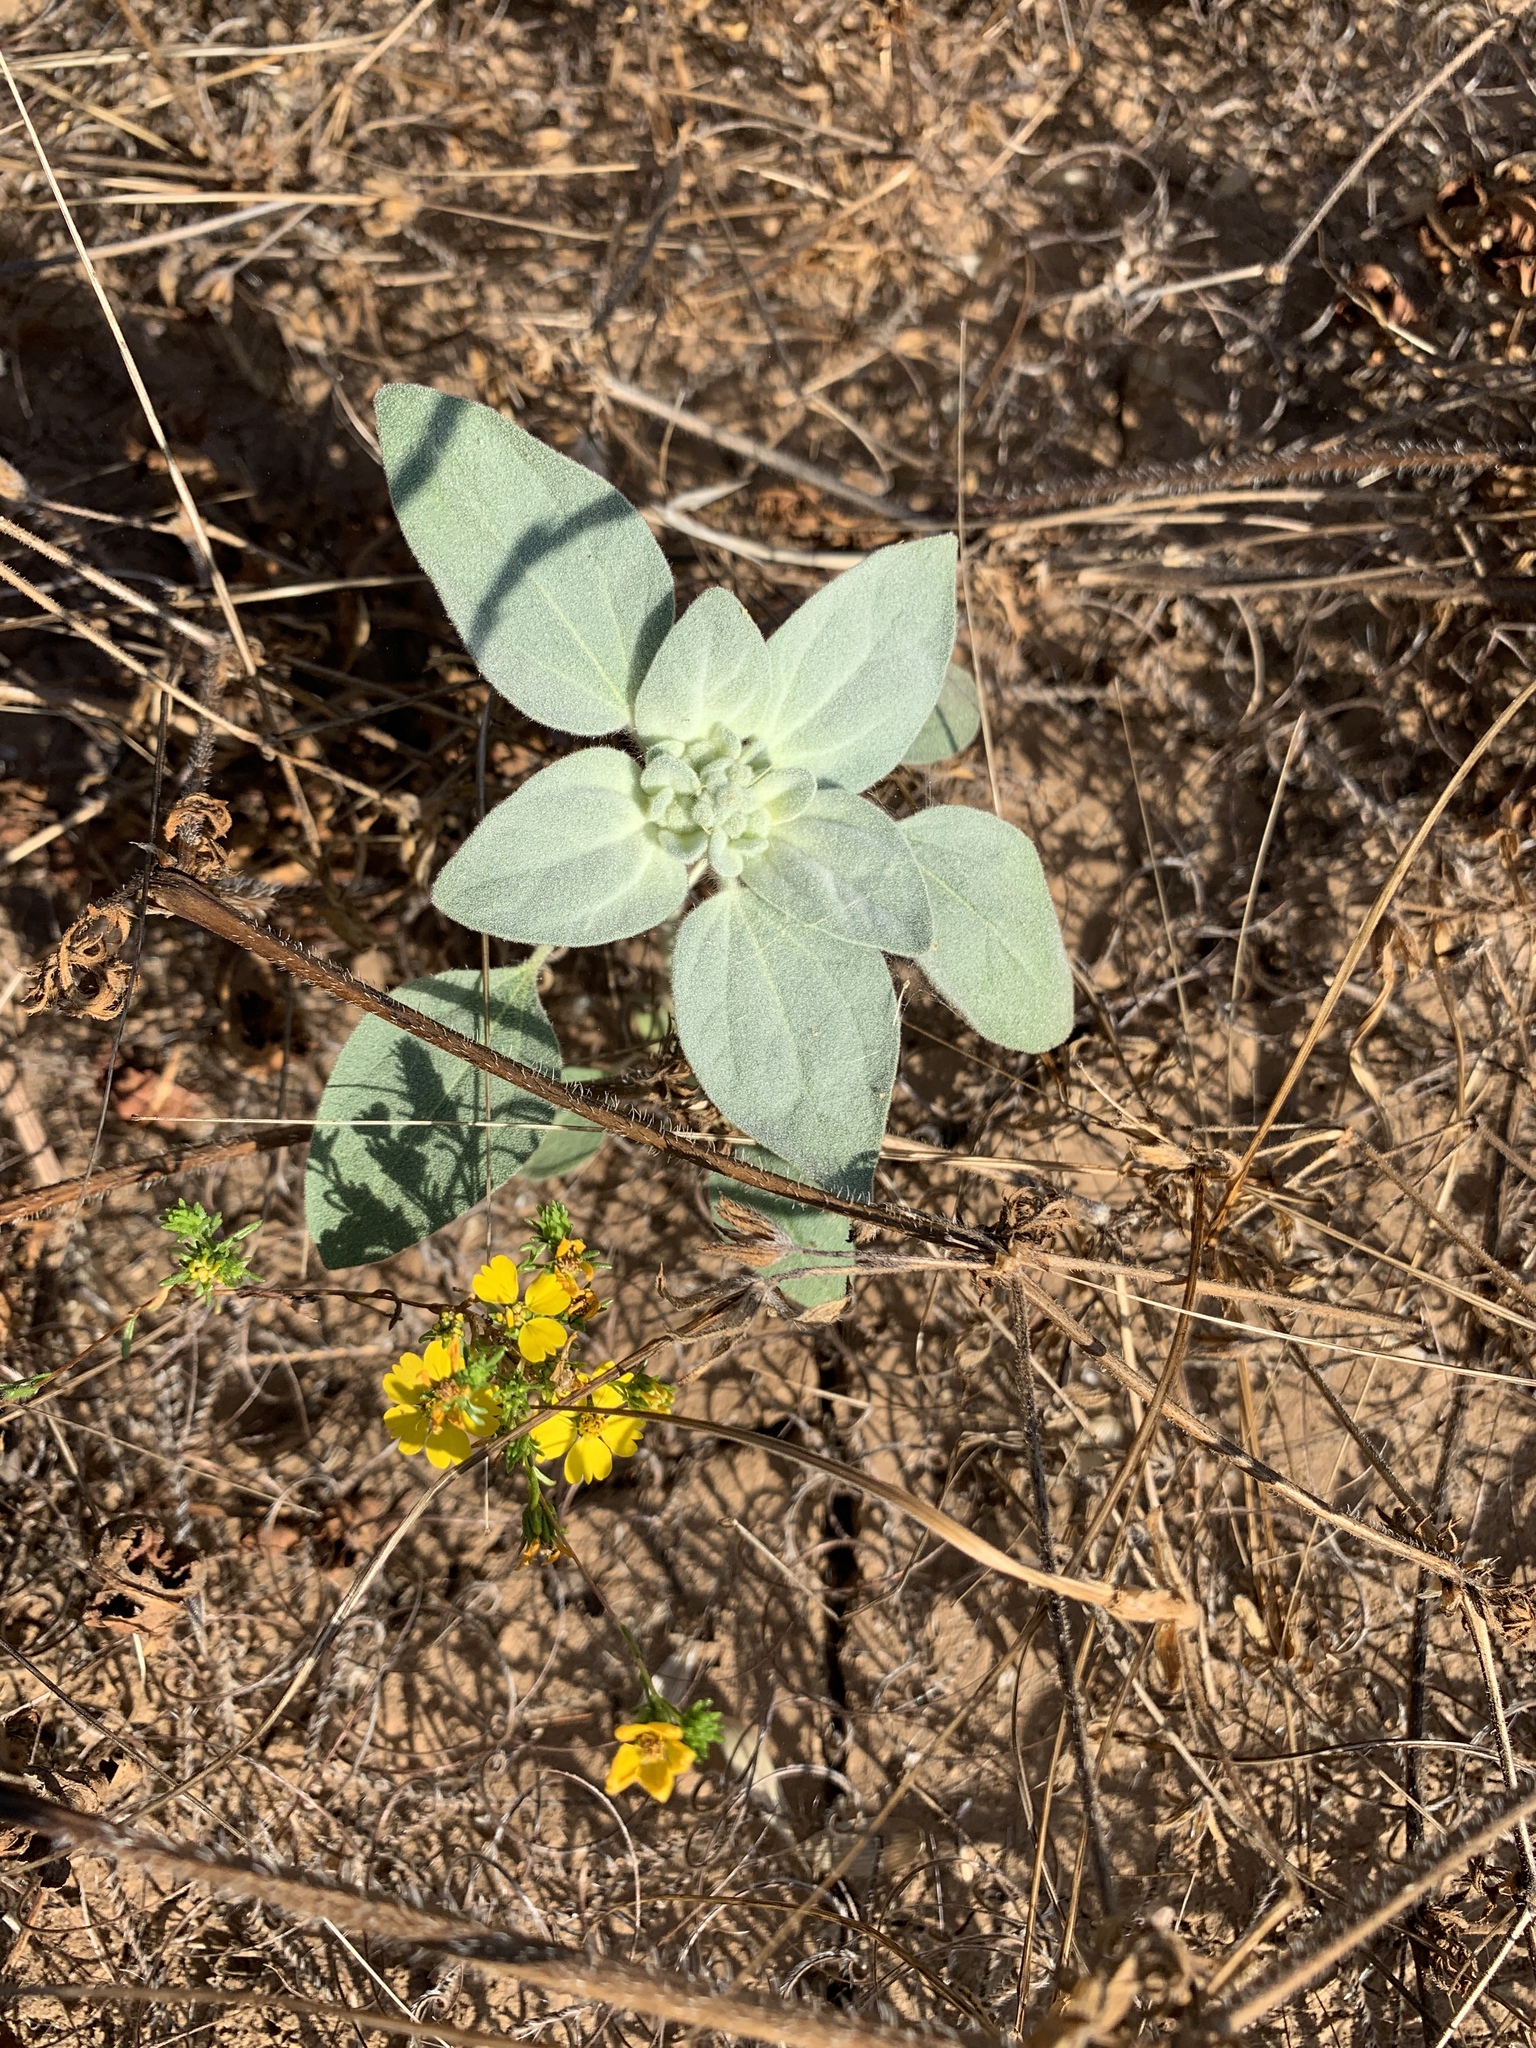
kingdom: Plantae
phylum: Tracheophyta
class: Magnoliopsida
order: Malpighiales
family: Euphorbiaceae
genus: Croton
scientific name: Croton setiger
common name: Dove weed
